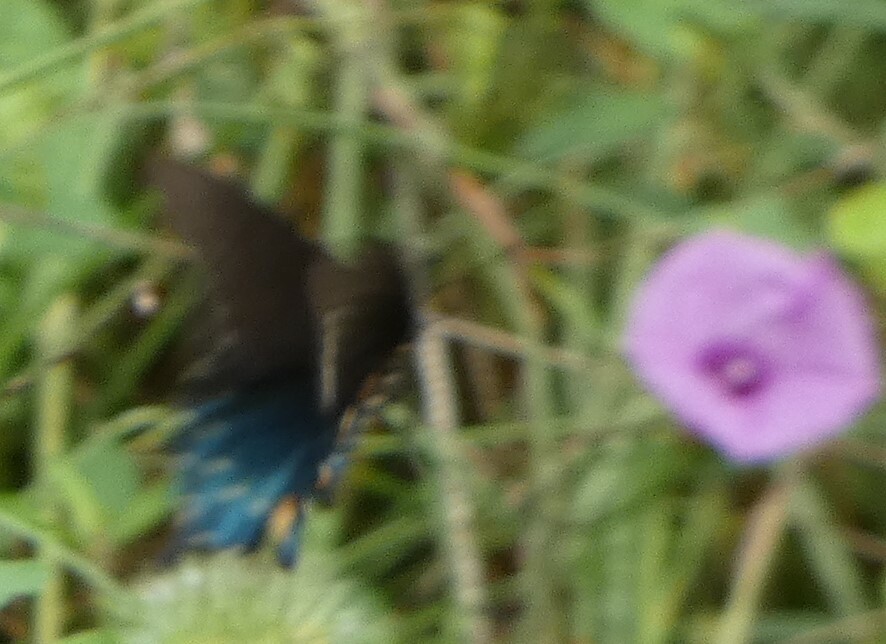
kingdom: Animalia
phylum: Arthropoda
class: Insecta
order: Lepidoptera
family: Papilionidae
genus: Battus
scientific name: Battus philenor
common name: Pipevine swallowtail
